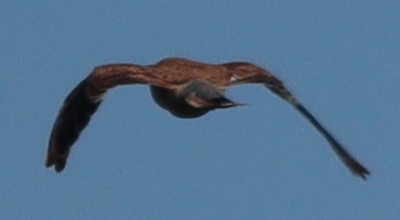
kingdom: Animalia
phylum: Chordata
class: Aves
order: Falconiformes
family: Falconidae
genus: Falco
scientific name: Falco tinnunculus
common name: Common kestrel
